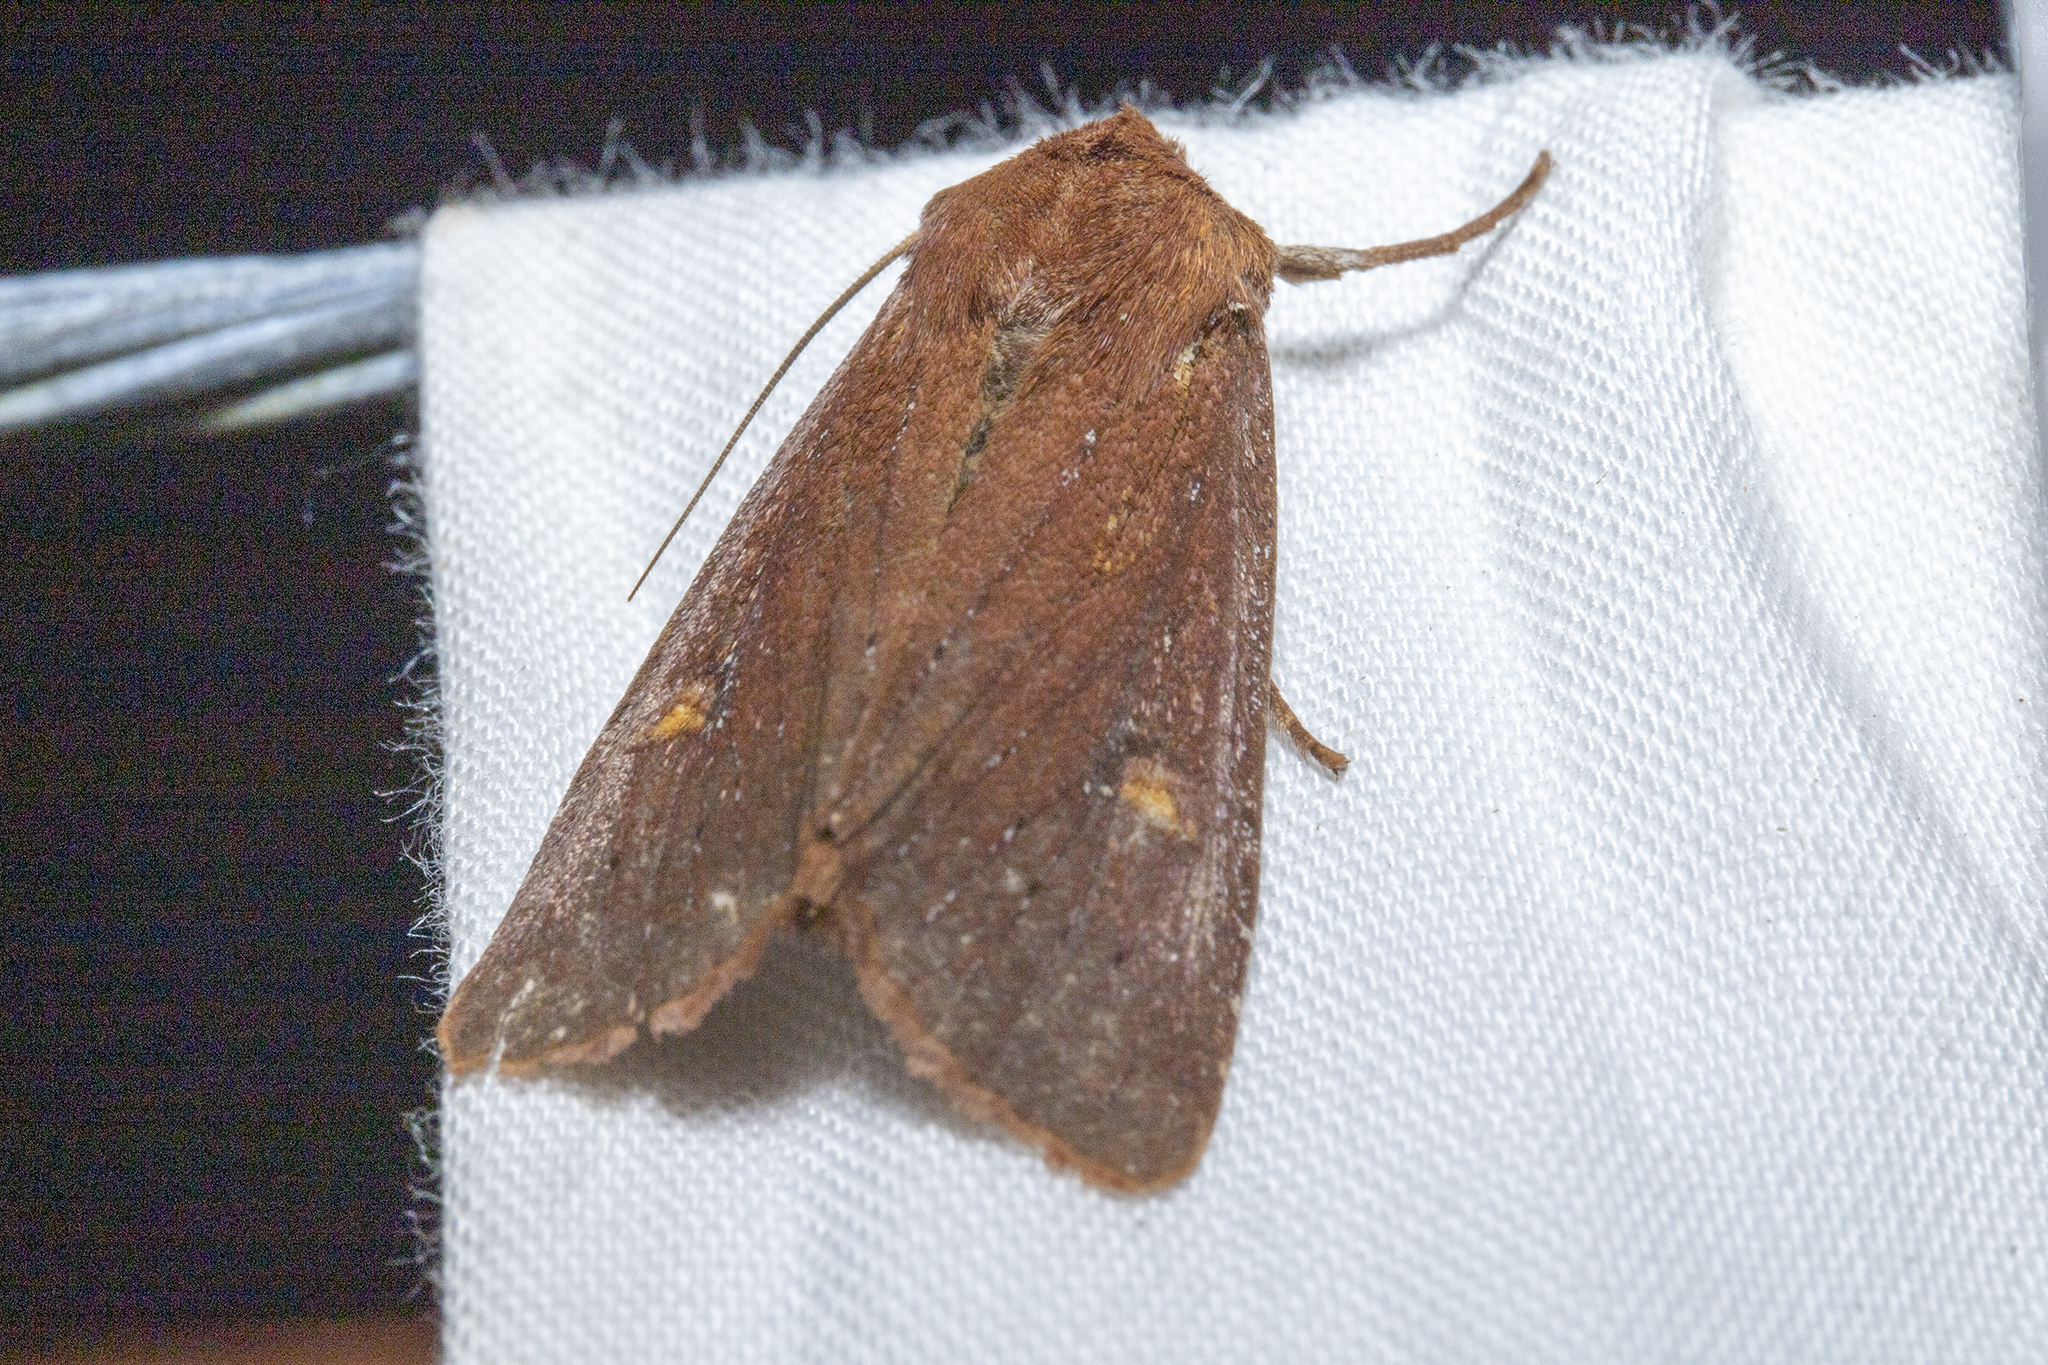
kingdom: Animalia
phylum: Arthropoda
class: Insecta
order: Lepidoptera
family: Noctuidae
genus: Ichneutica
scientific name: Ichneutica
